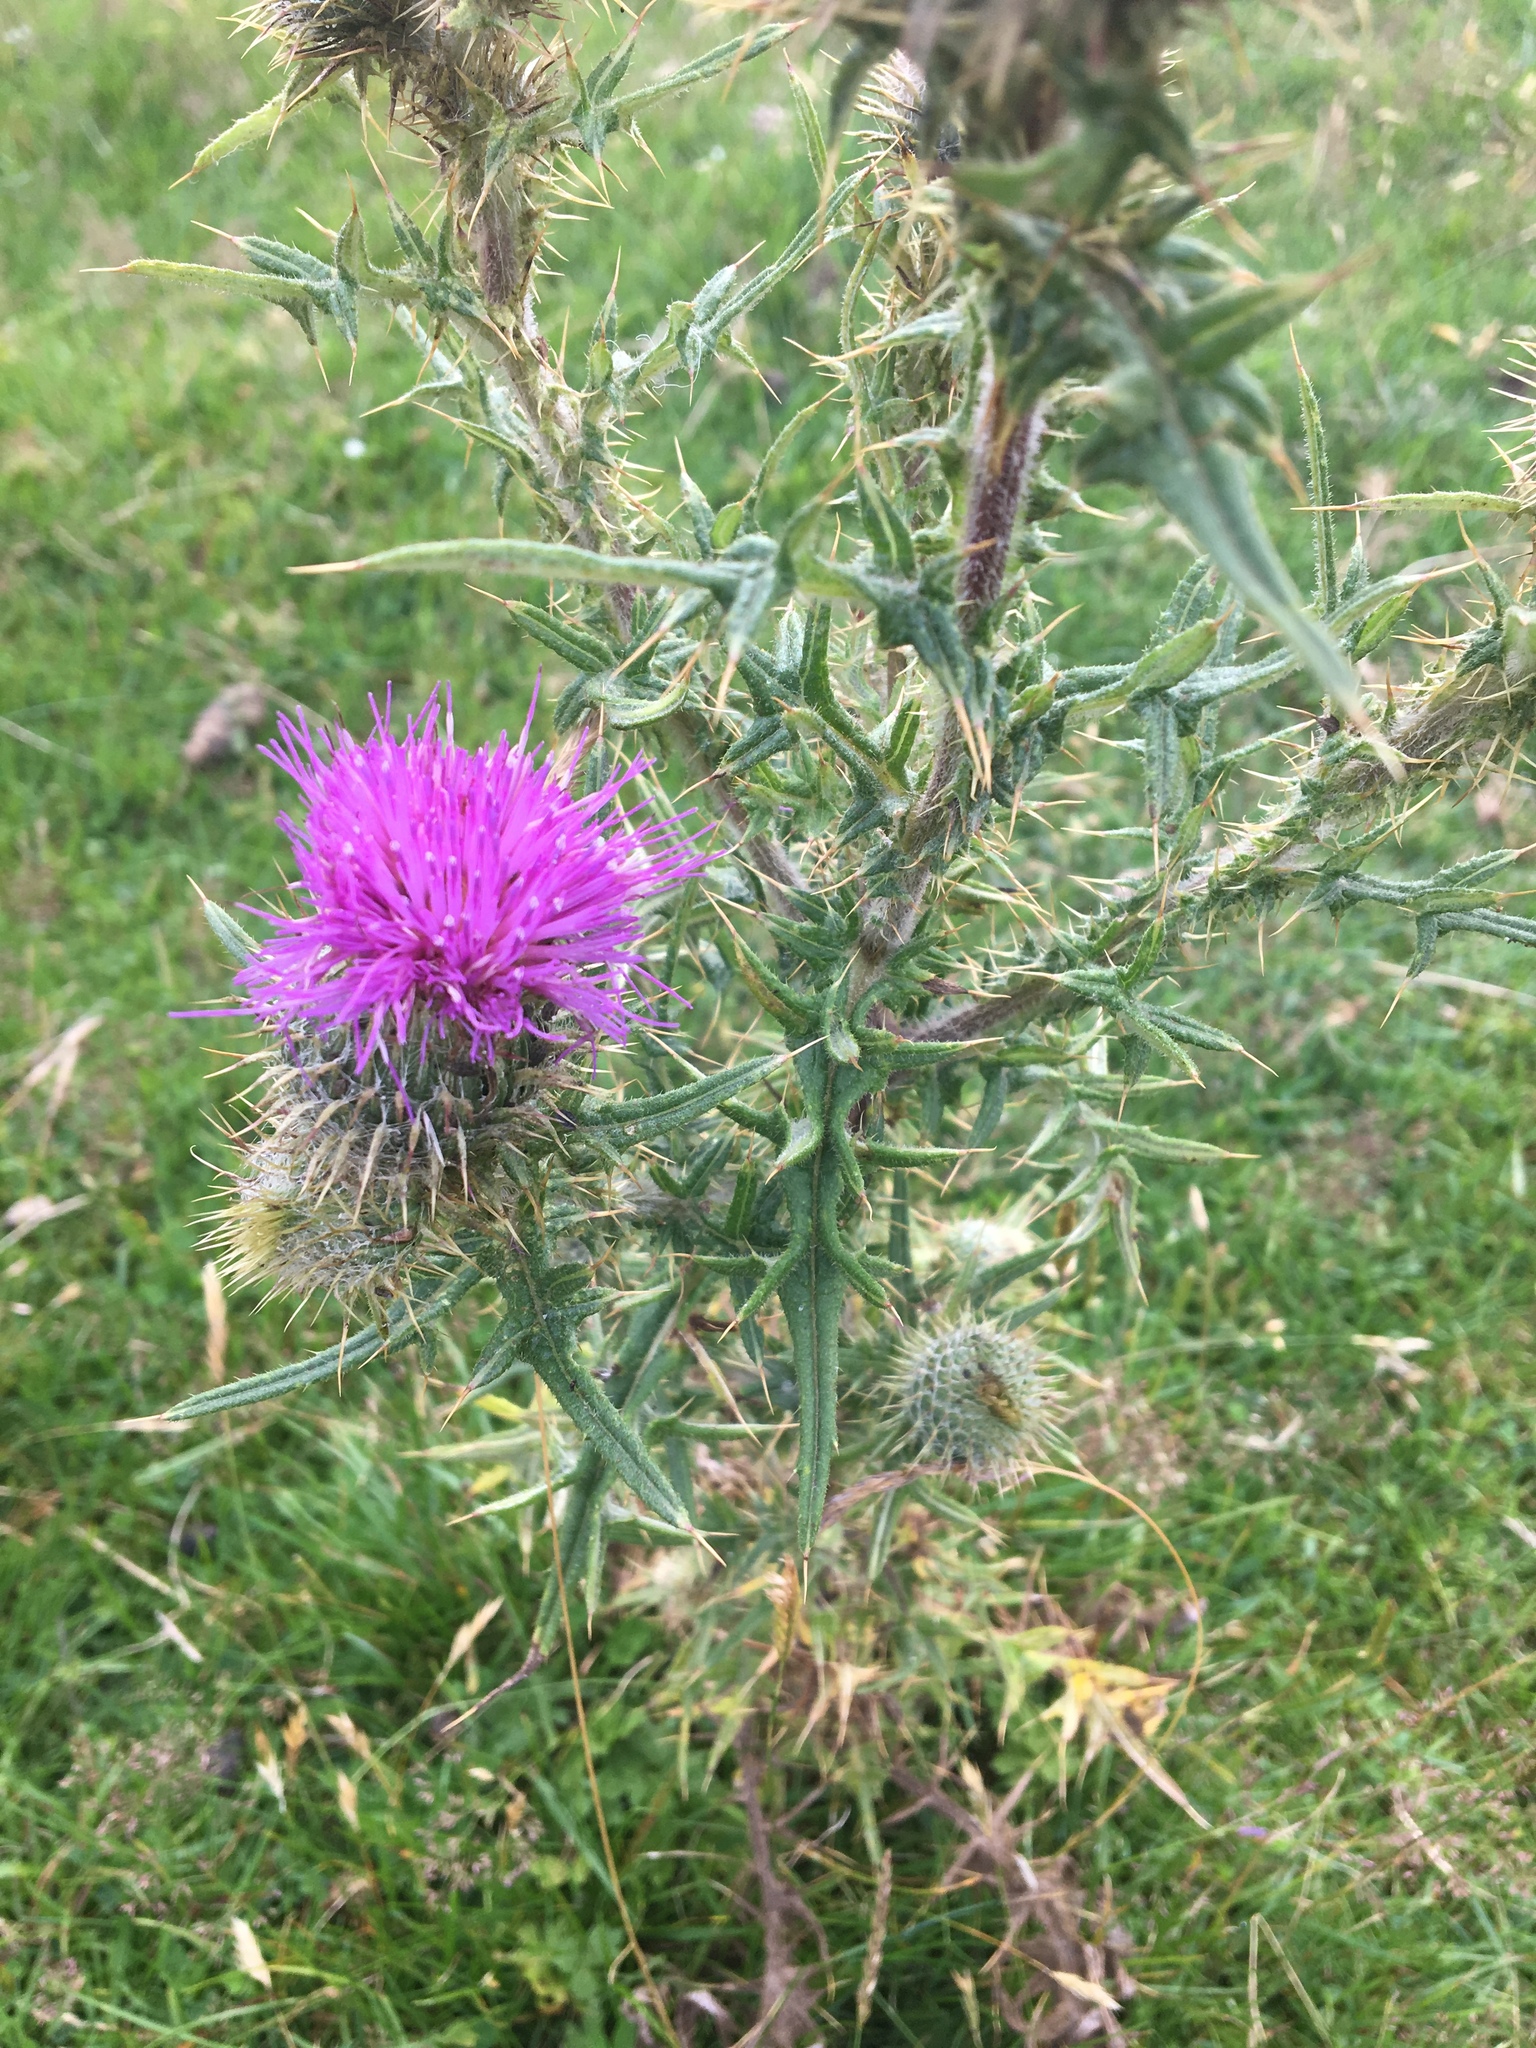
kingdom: Plantae
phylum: Tracheophyta
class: Magnoliopsida
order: Asterales
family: Asteraceae
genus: Cirsium
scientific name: Cirsium vulgare
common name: Bull thistle
